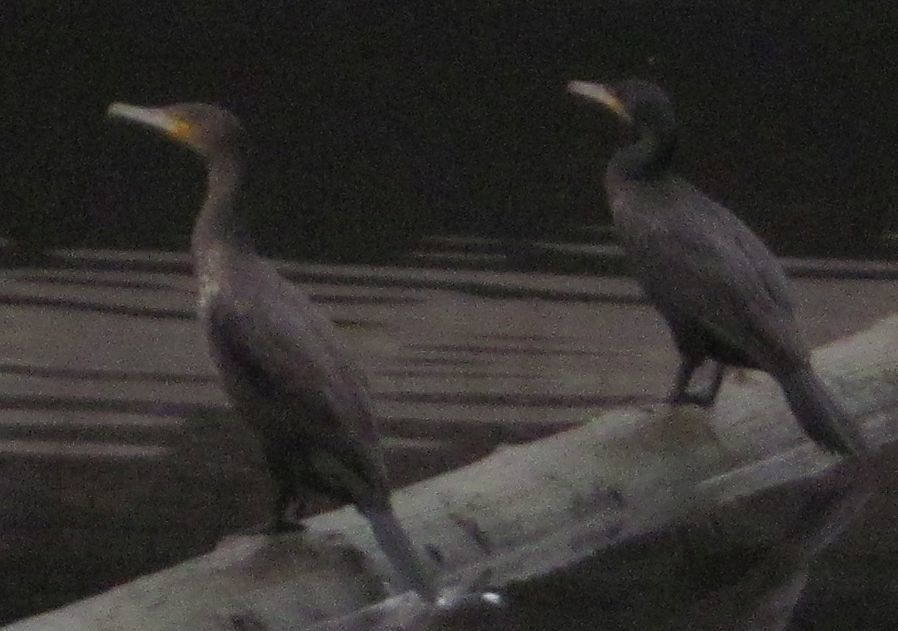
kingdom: Animalia
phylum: Chordata
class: Aves
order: Suliformes
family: Phalacrocoracidae
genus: Phalacrocorax
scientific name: Phalacrocorax carbo
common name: Great cormorant
